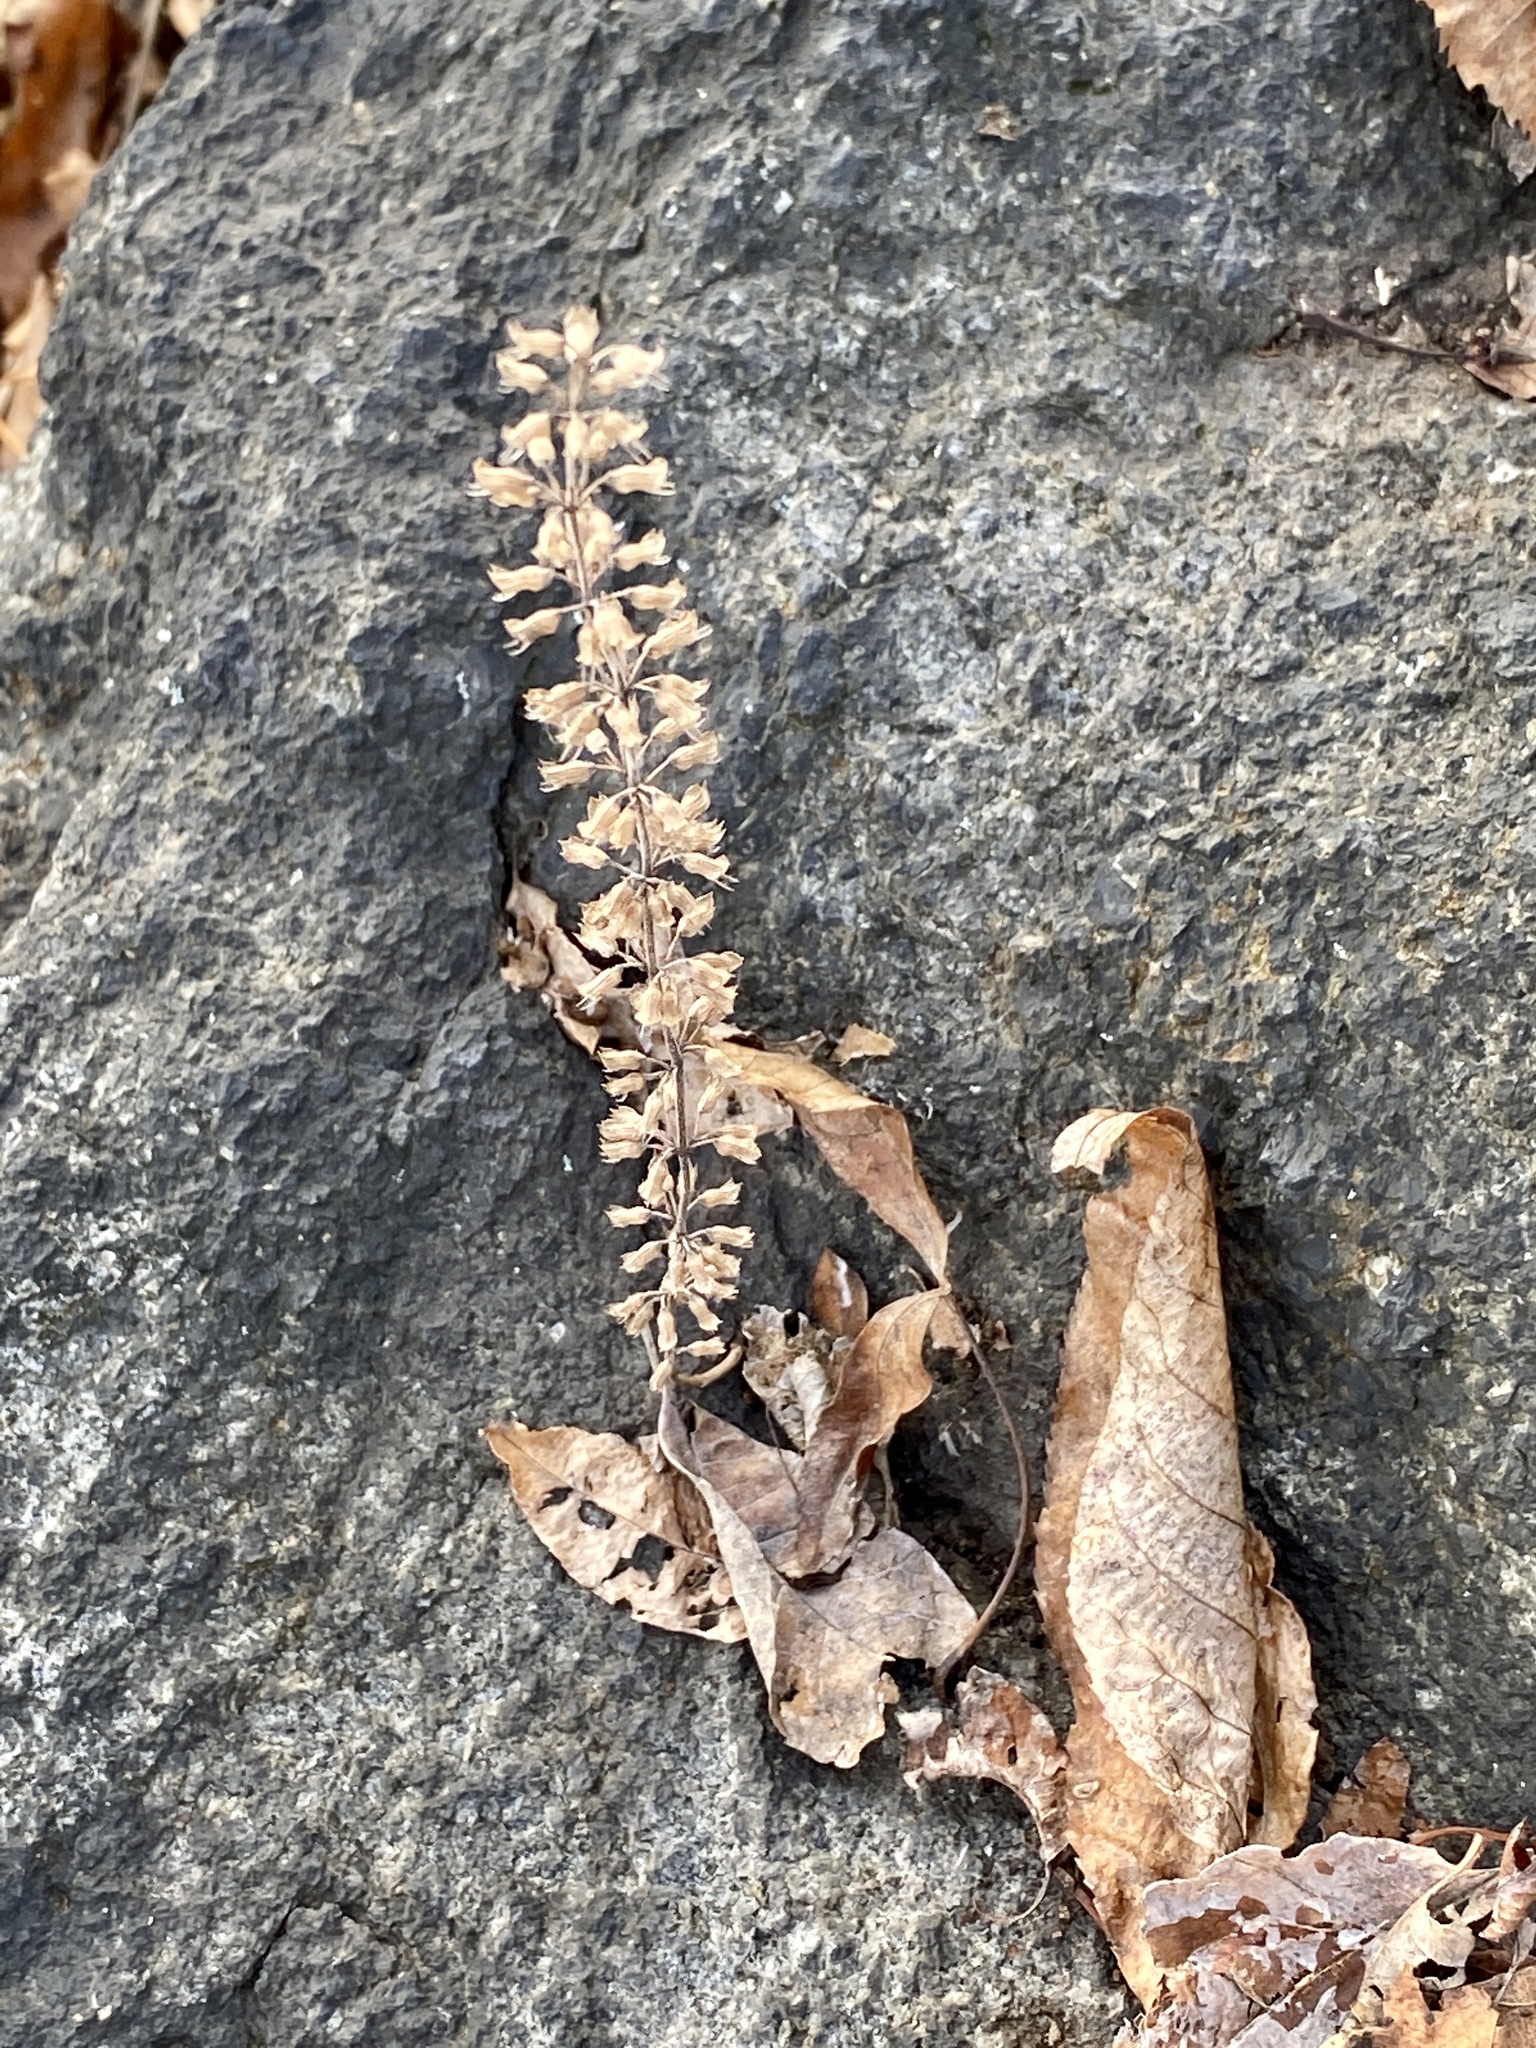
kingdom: Plantae
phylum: Tracheophyta
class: Magnoliopsida
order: Lamiales
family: Lamiaceae
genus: Hedeoma
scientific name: Hedeoma pulegioides
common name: American false pennyroyal
